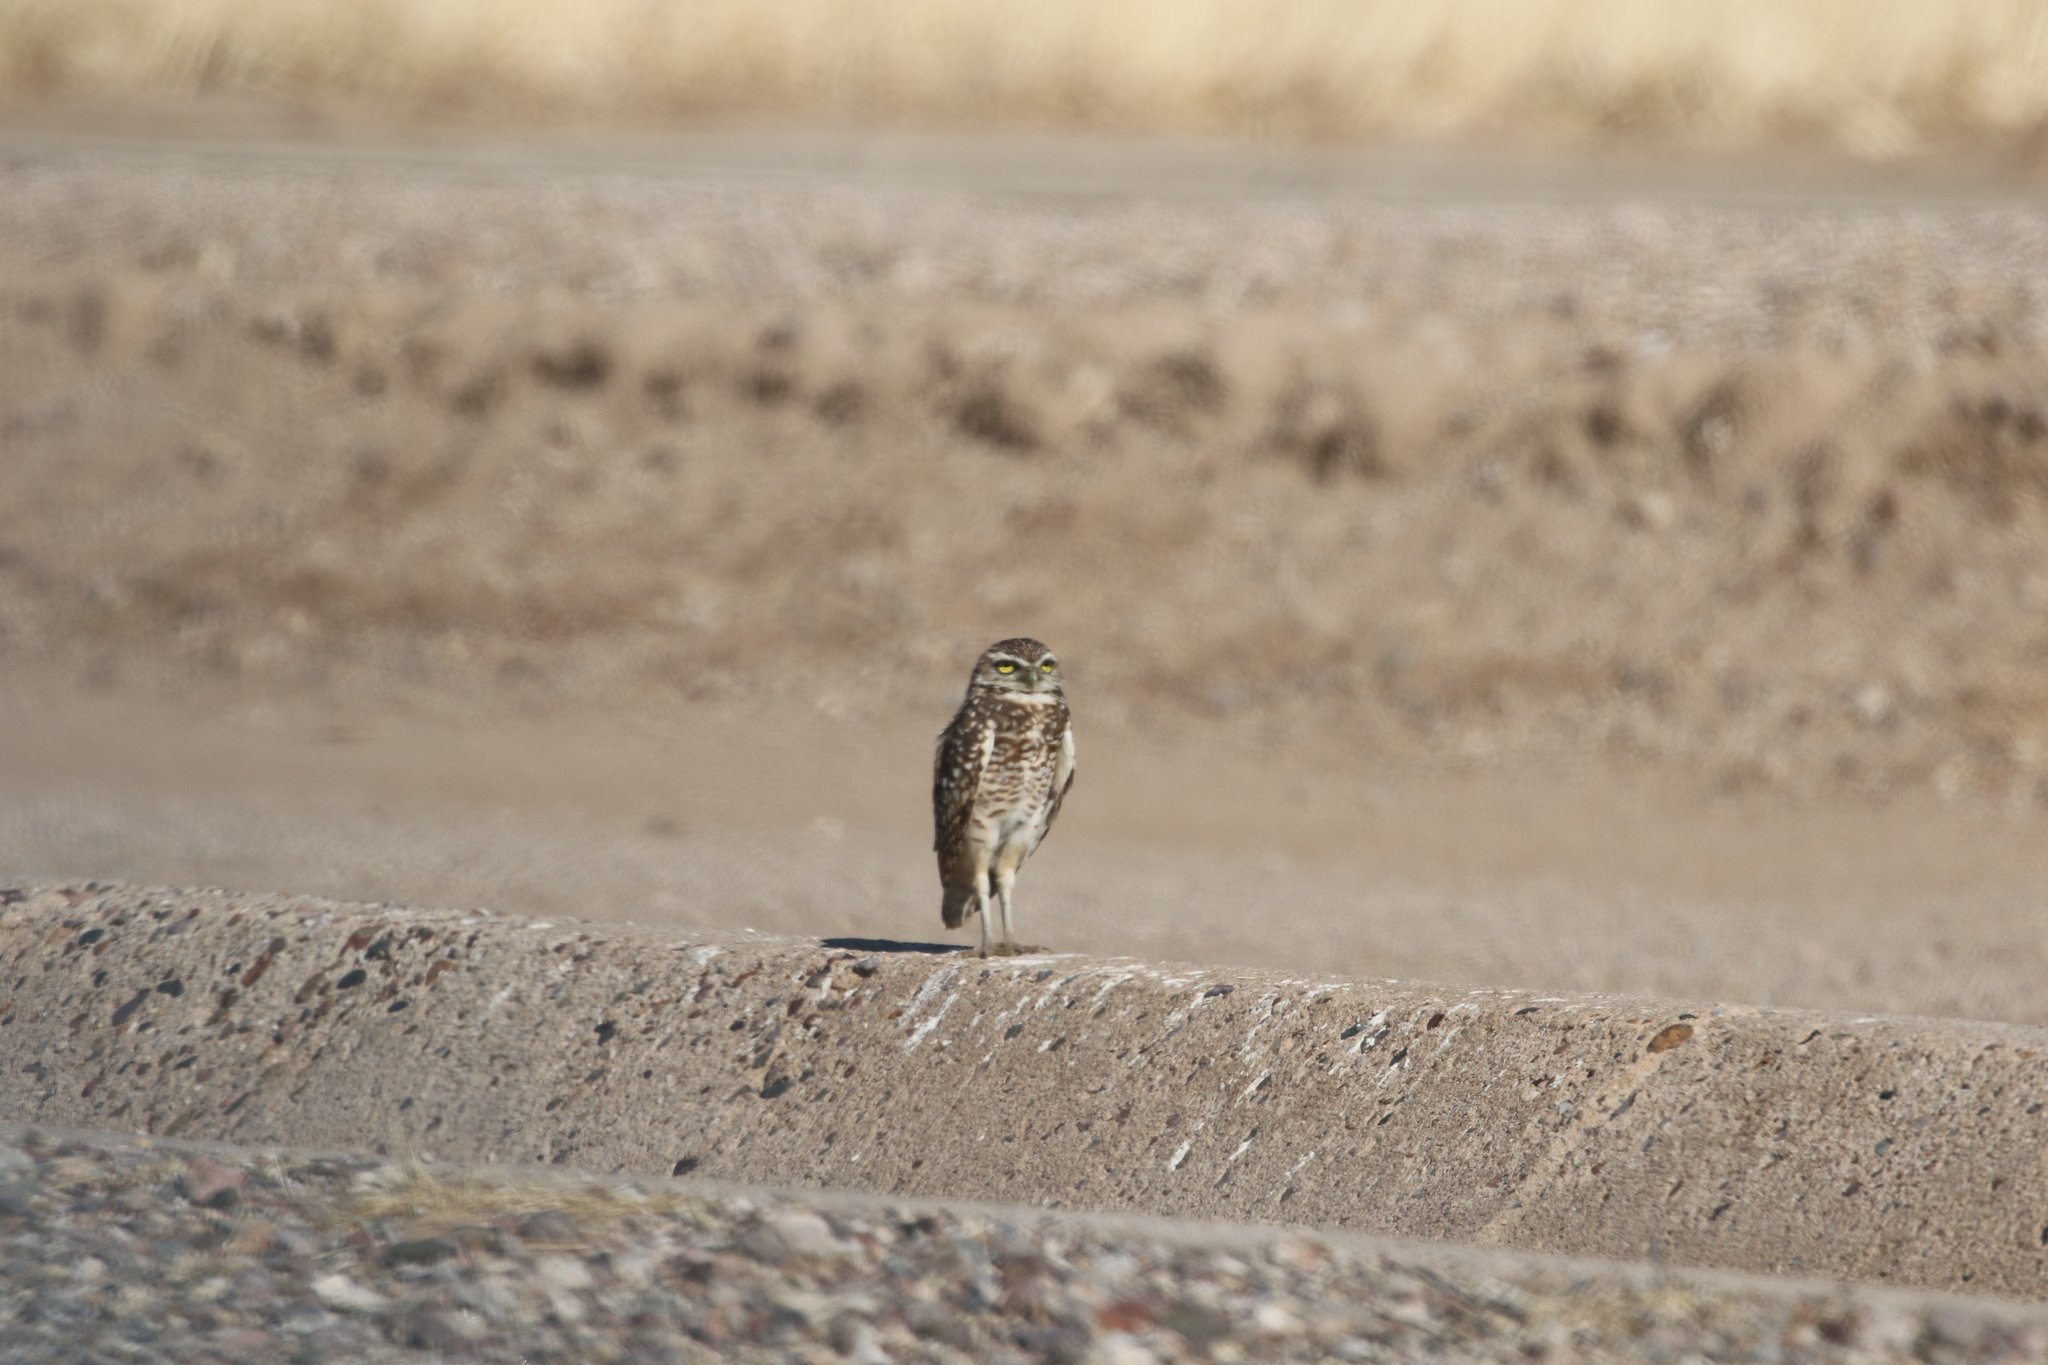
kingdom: Animalia
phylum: Chordata
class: Aves
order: Strigiformes
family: Strigidae
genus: Athene
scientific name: Athene cunicularia
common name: Burrowing owl
